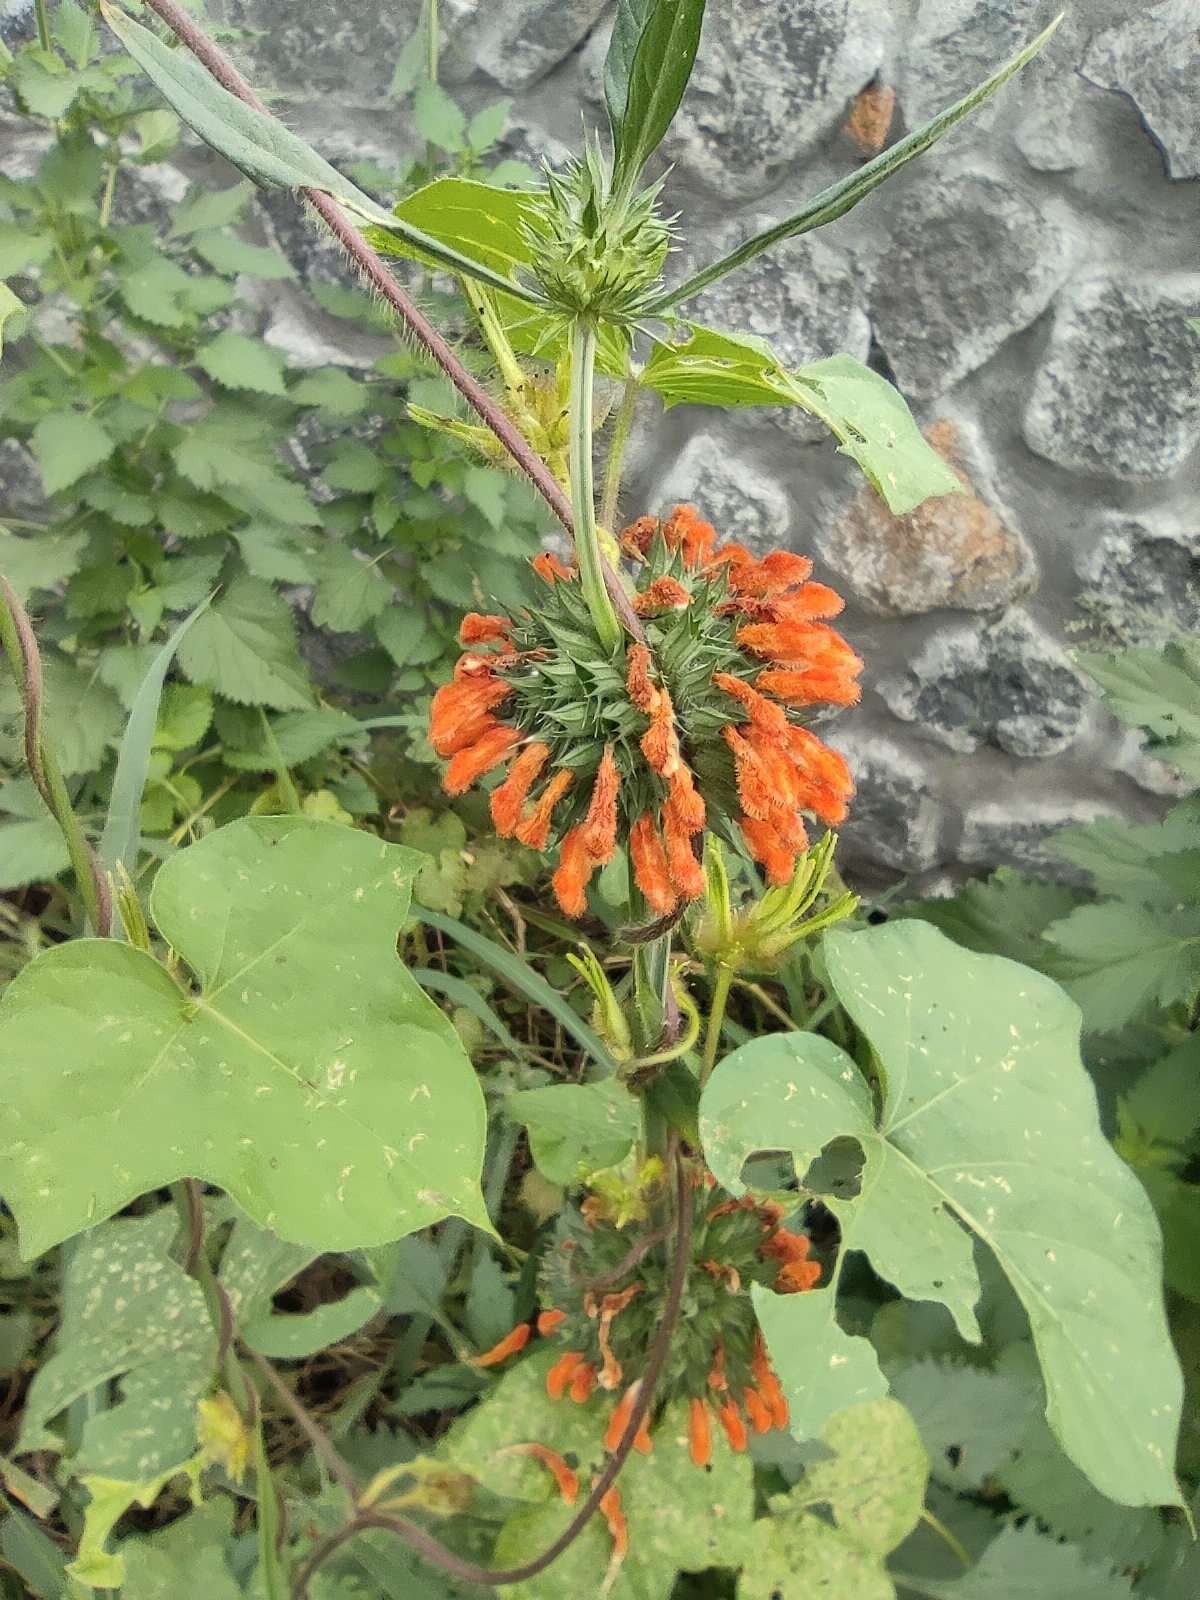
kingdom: Plantae
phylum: Tracheophyta
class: Magnoliopsida
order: Lamiales
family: Lamiaceae
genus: Leonotis
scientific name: Leonotis nepetifolia
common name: Christmas candlestick
